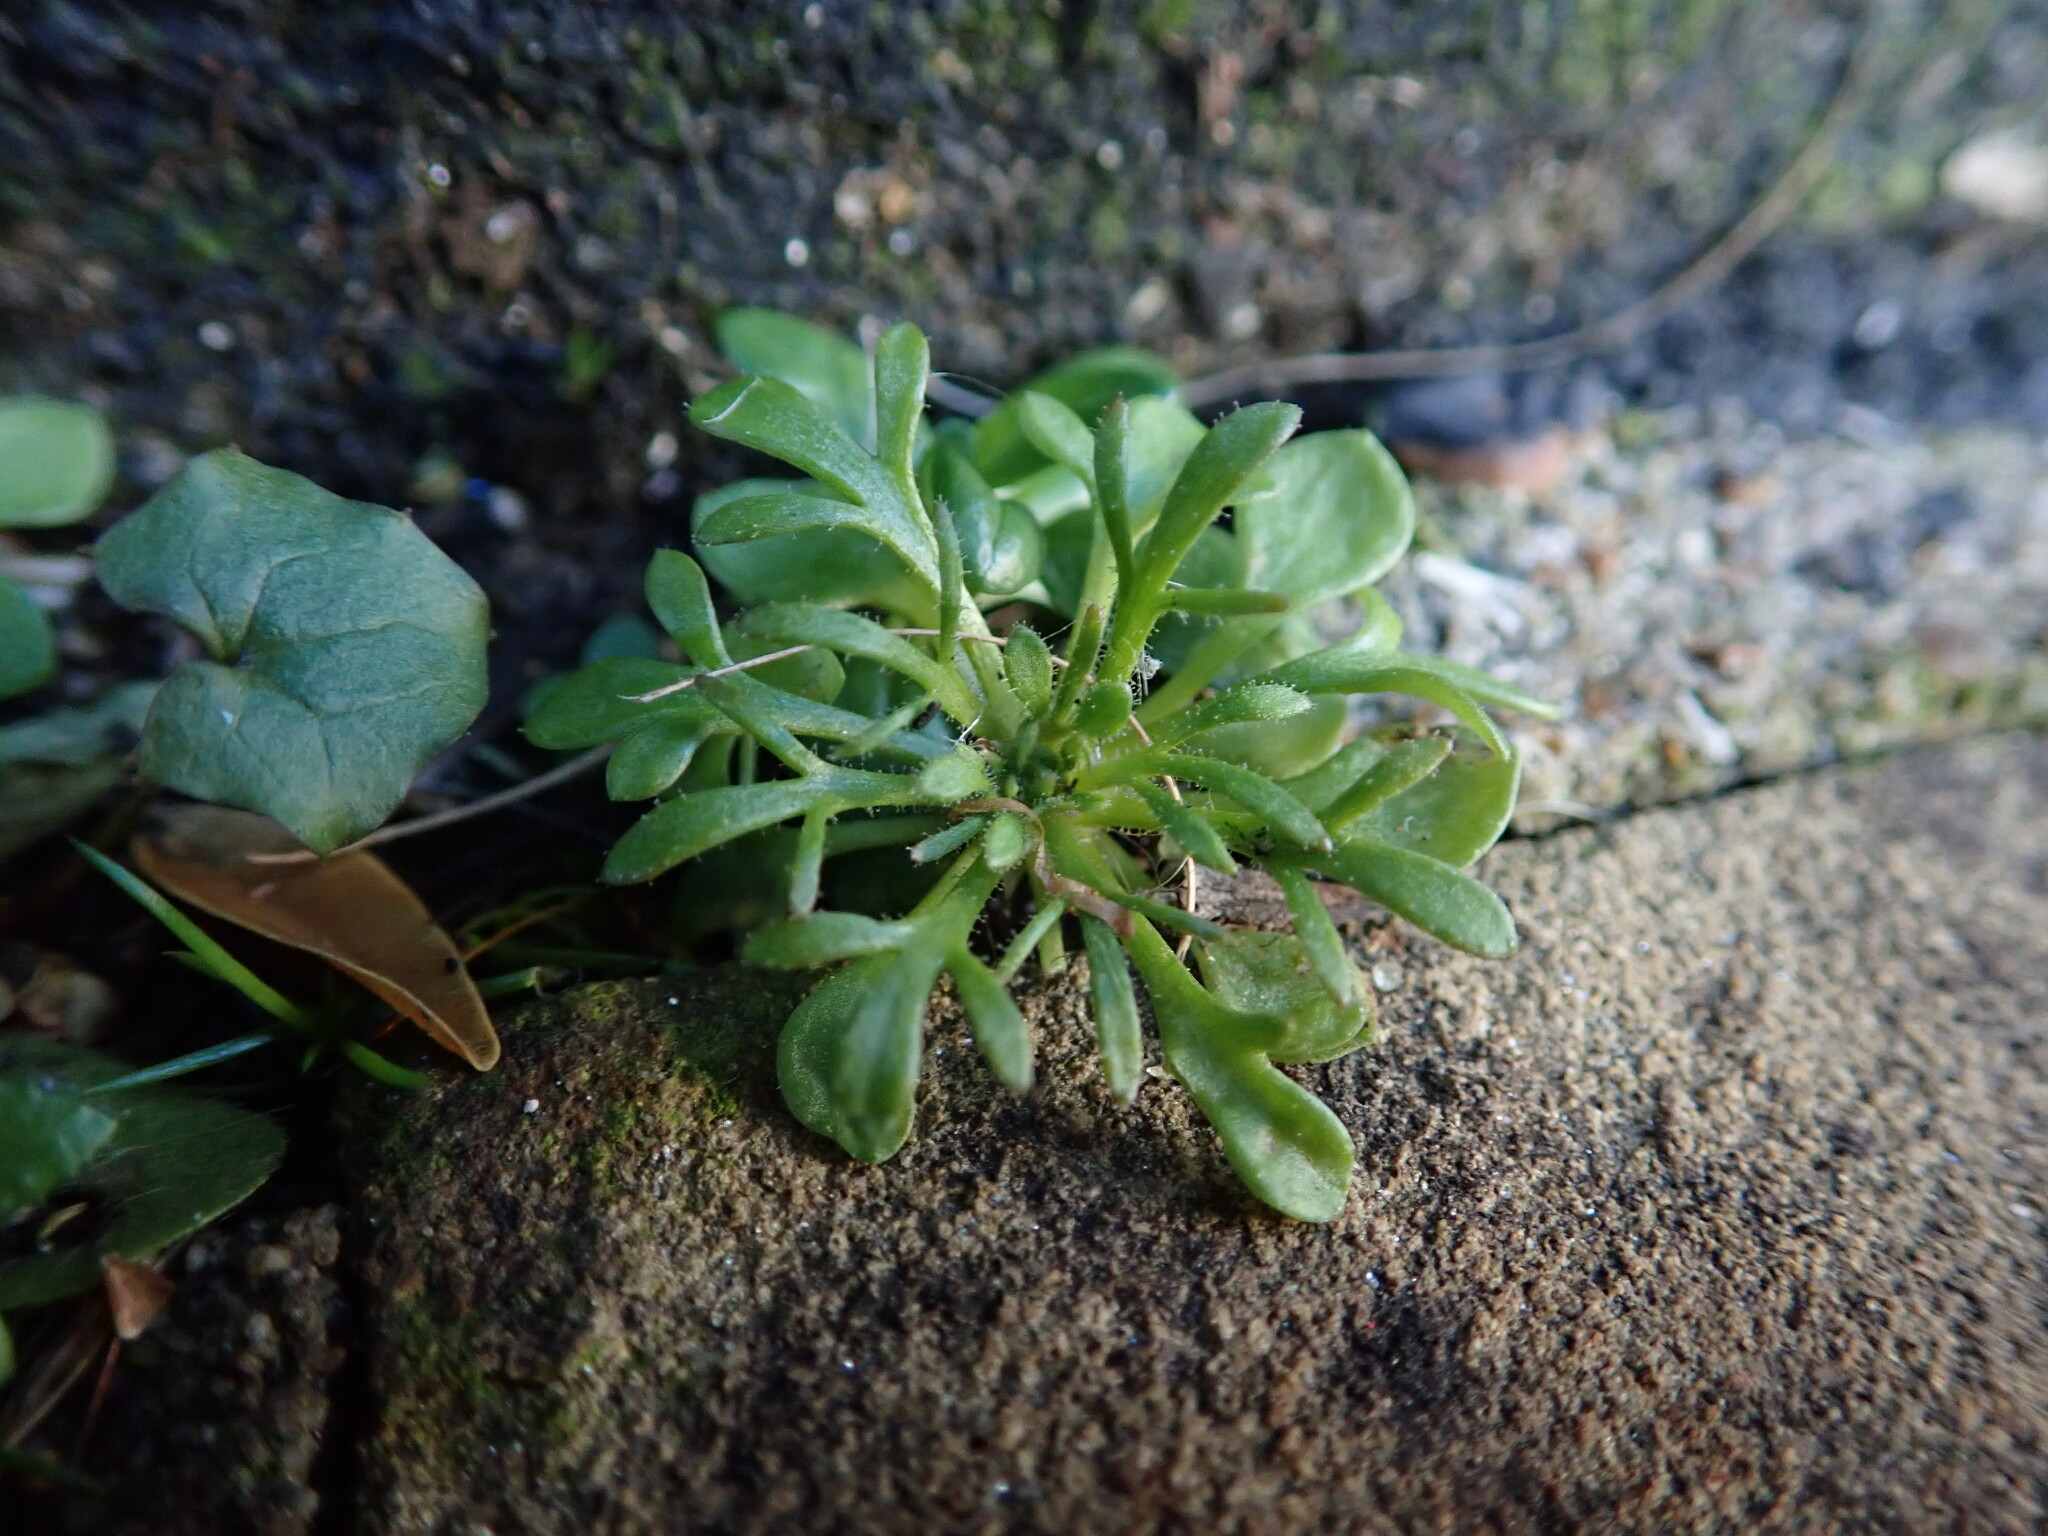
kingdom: Plantae
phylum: Tracheophyta
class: Magnoliopsida
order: Saxifragales
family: Saxifragaceae
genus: Saxifraga
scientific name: Saxifraga tridactylites
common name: Rue-leaved saxifrage
